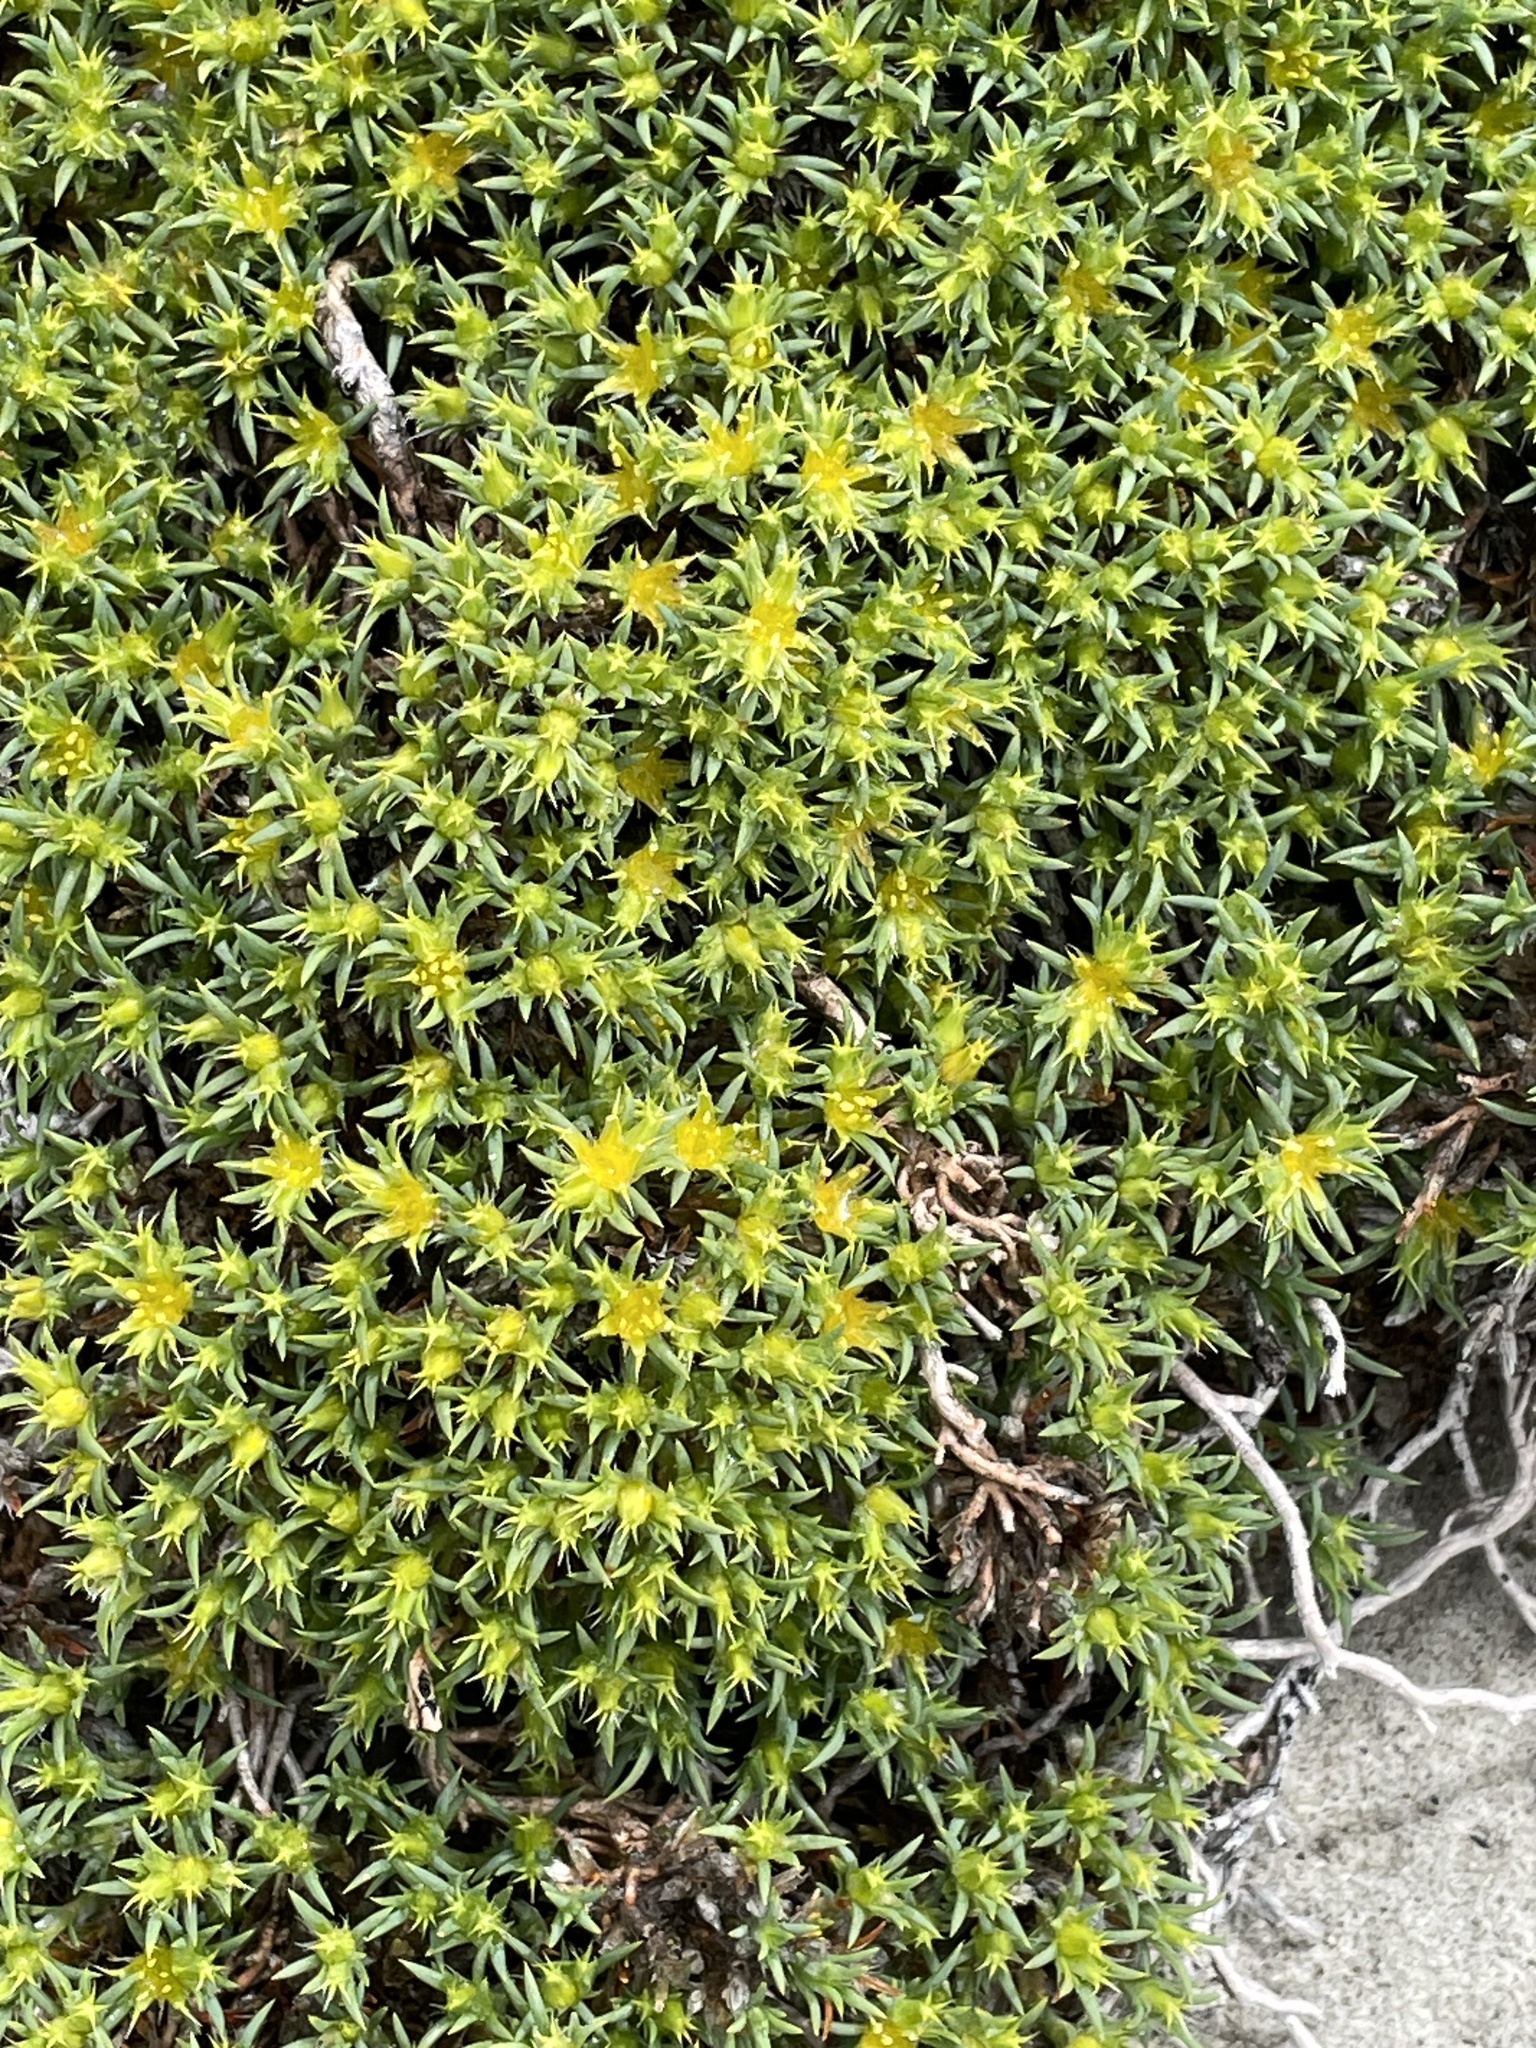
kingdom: Plantae
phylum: Tracheophyta
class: Magnoliopsida
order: Caryophyllales
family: Caryophyllaceae
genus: Paronychia
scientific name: Paronychia sessiliflora
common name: Creeping nailwort
